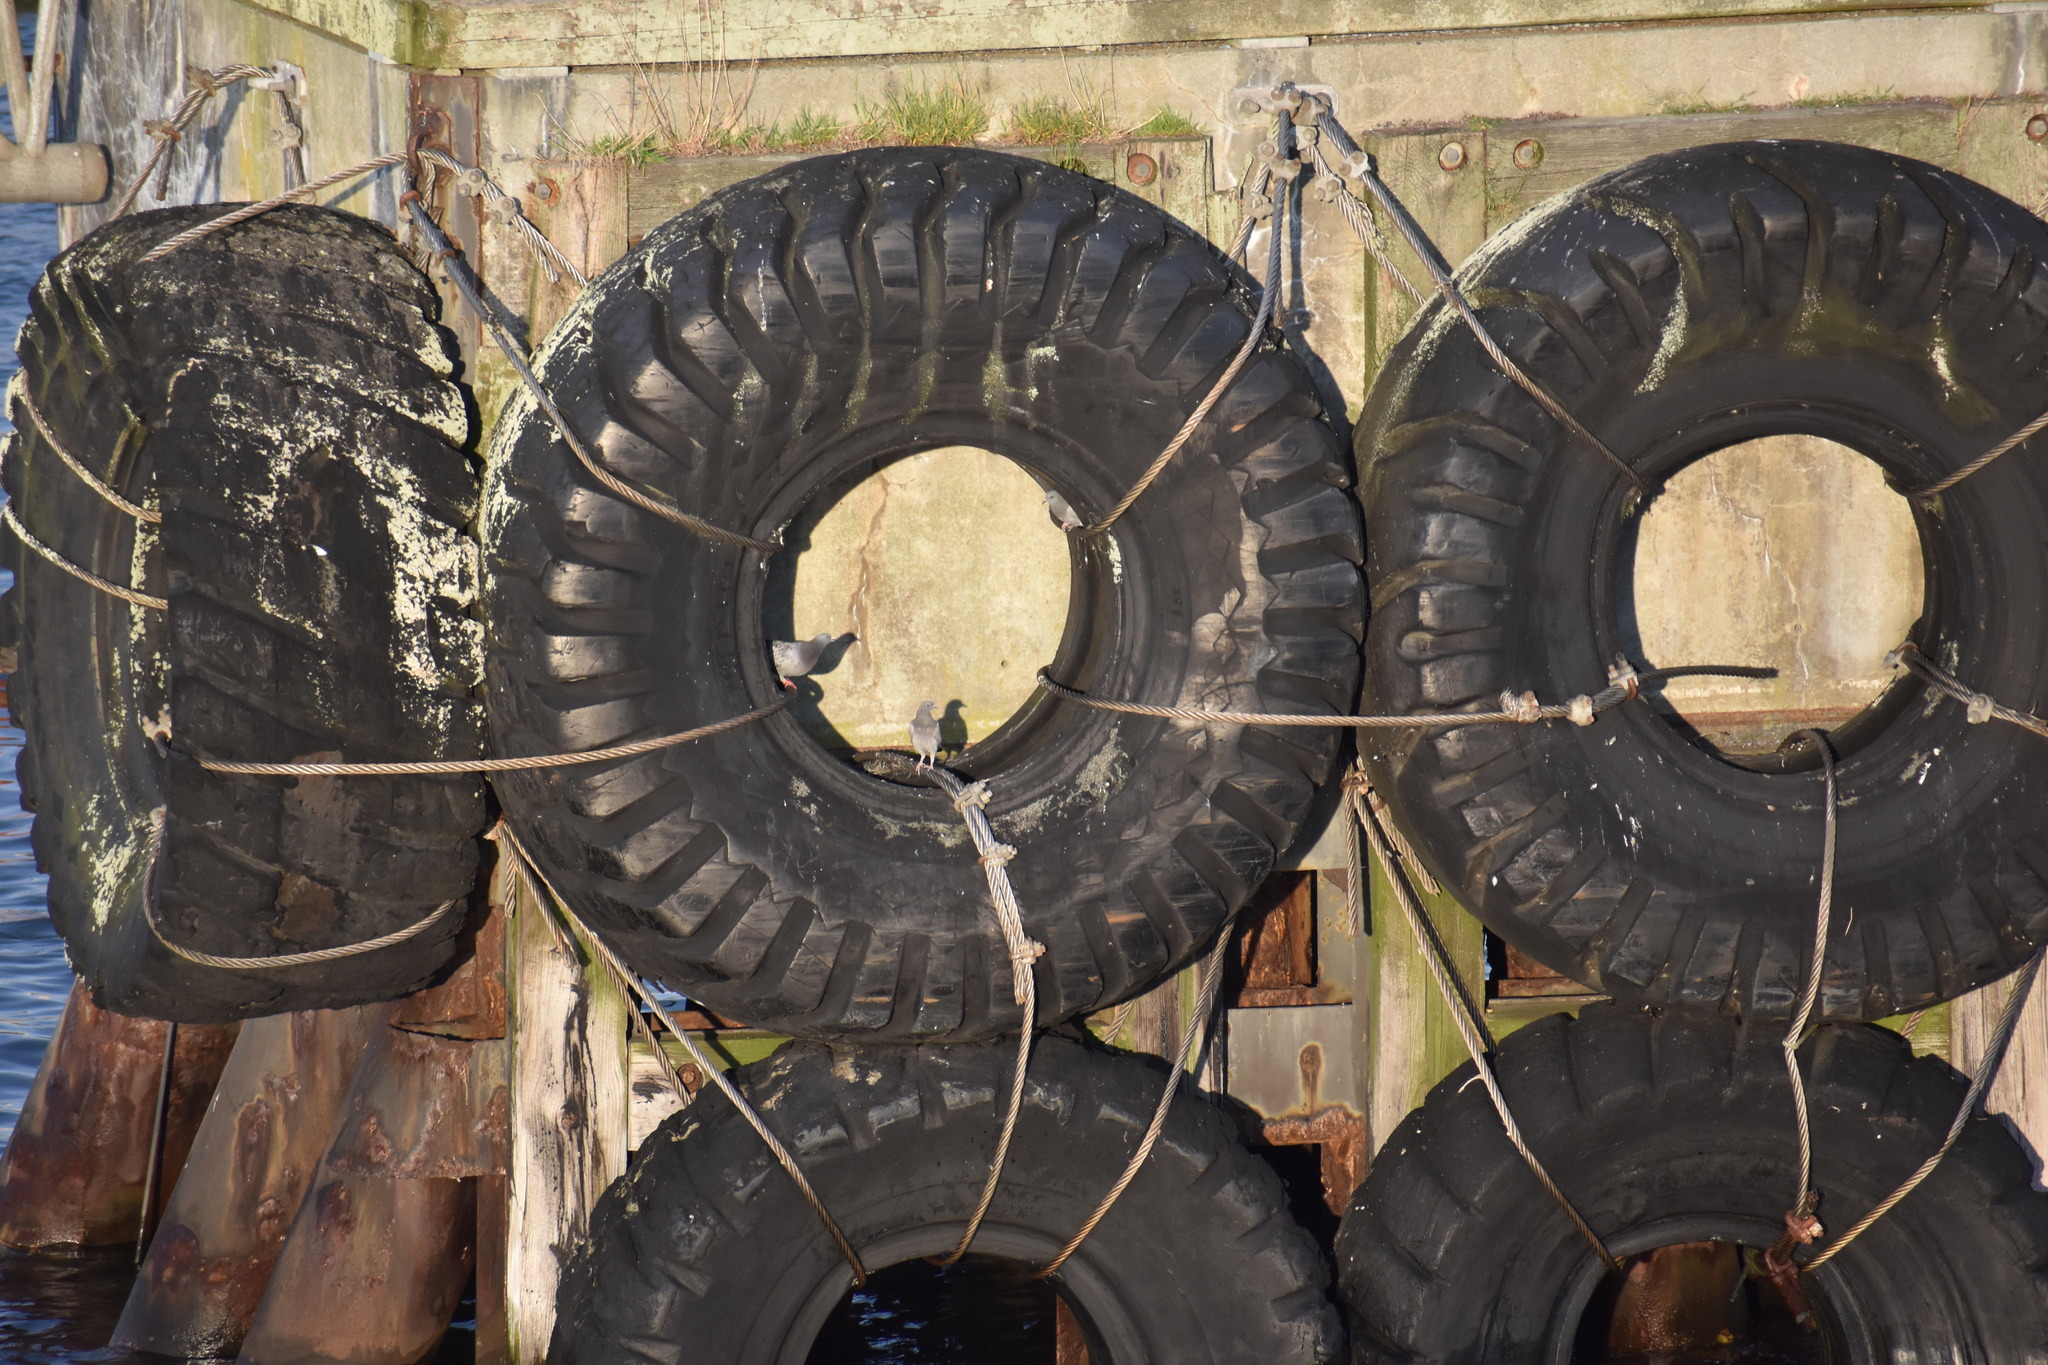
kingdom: Animalia
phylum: Chordata
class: Aves
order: Columbiformes
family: Columbidae
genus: Columba
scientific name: Columba livia
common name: Rock pigeon
